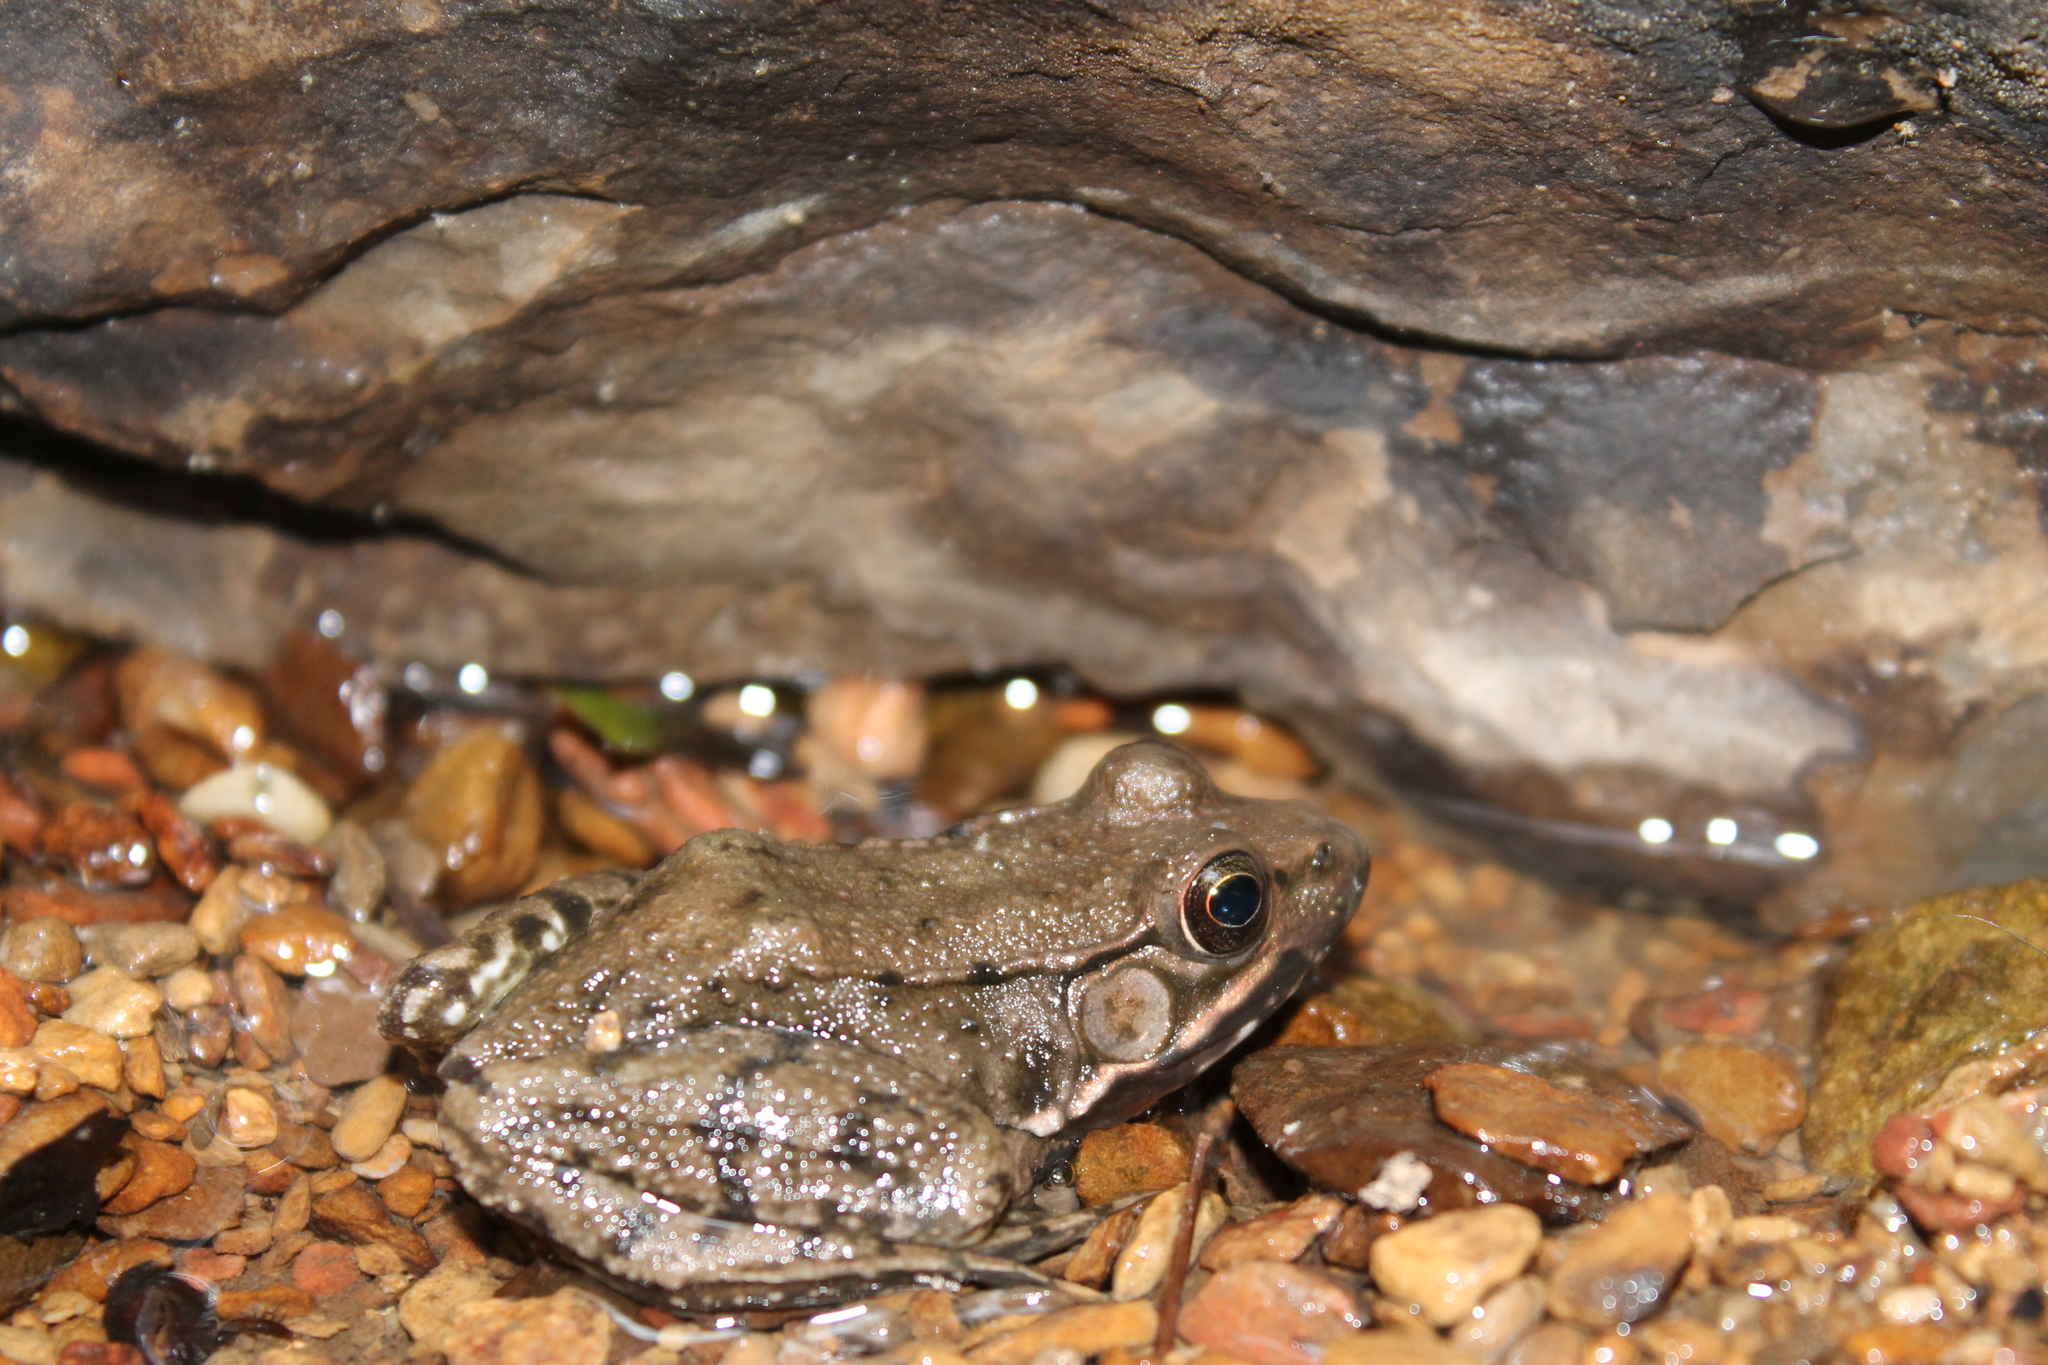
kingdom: Animalia
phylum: Chordata
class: Amphibia
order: Anura
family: Ranidae
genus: Lithobates
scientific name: Lithobates clamitans
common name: Green frog
